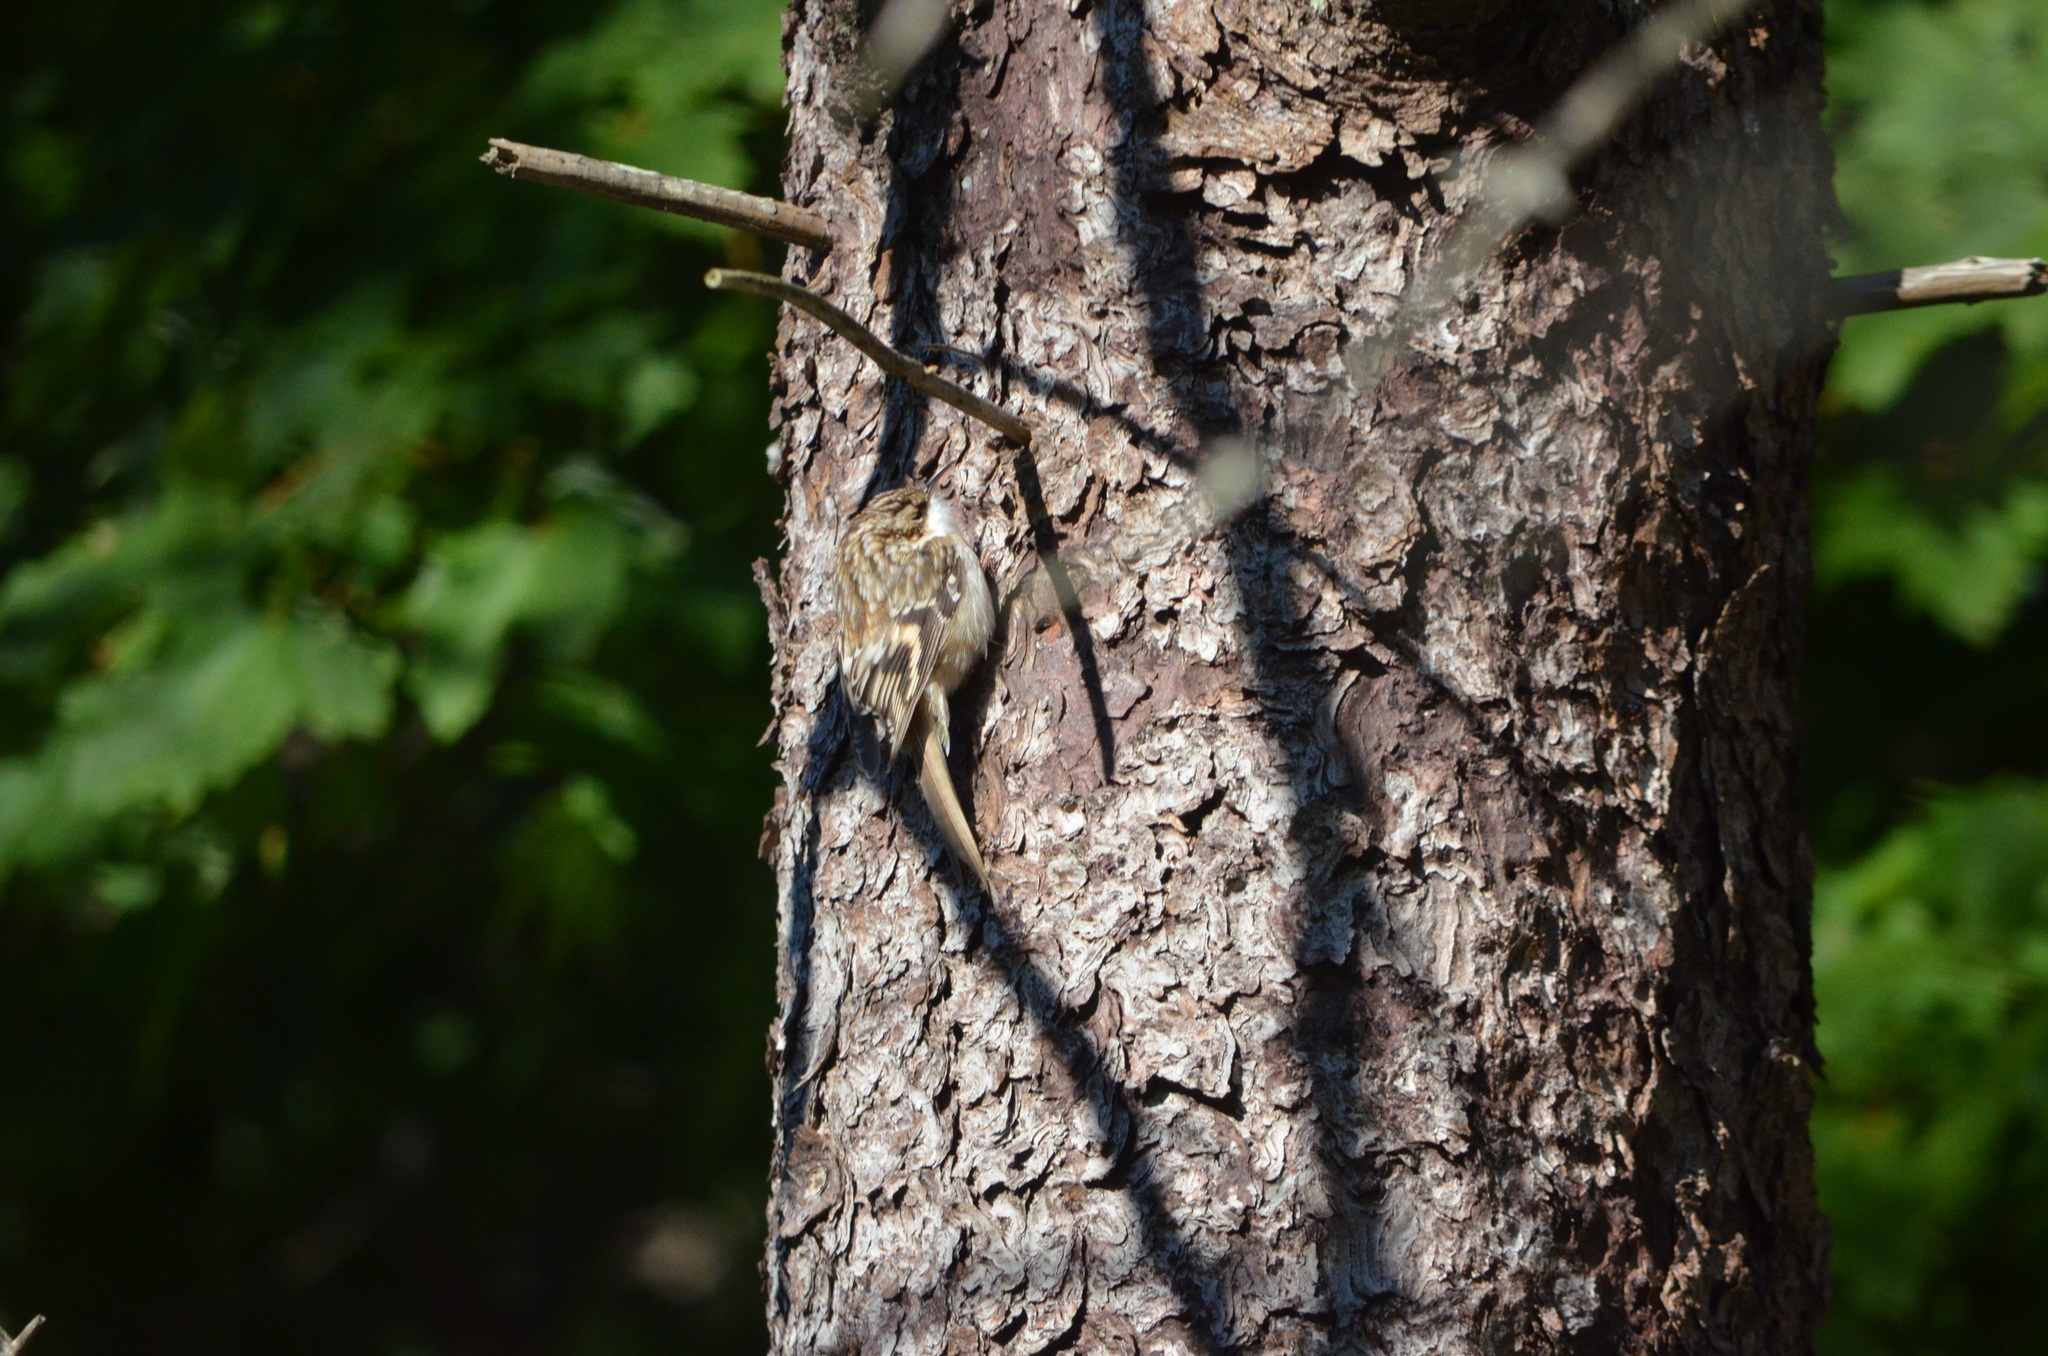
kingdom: Animalia
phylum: Chordata
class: Aves
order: Passeriformes
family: Certhiidae
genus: Certhia
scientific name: Certhia americana
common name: Brown creeper
